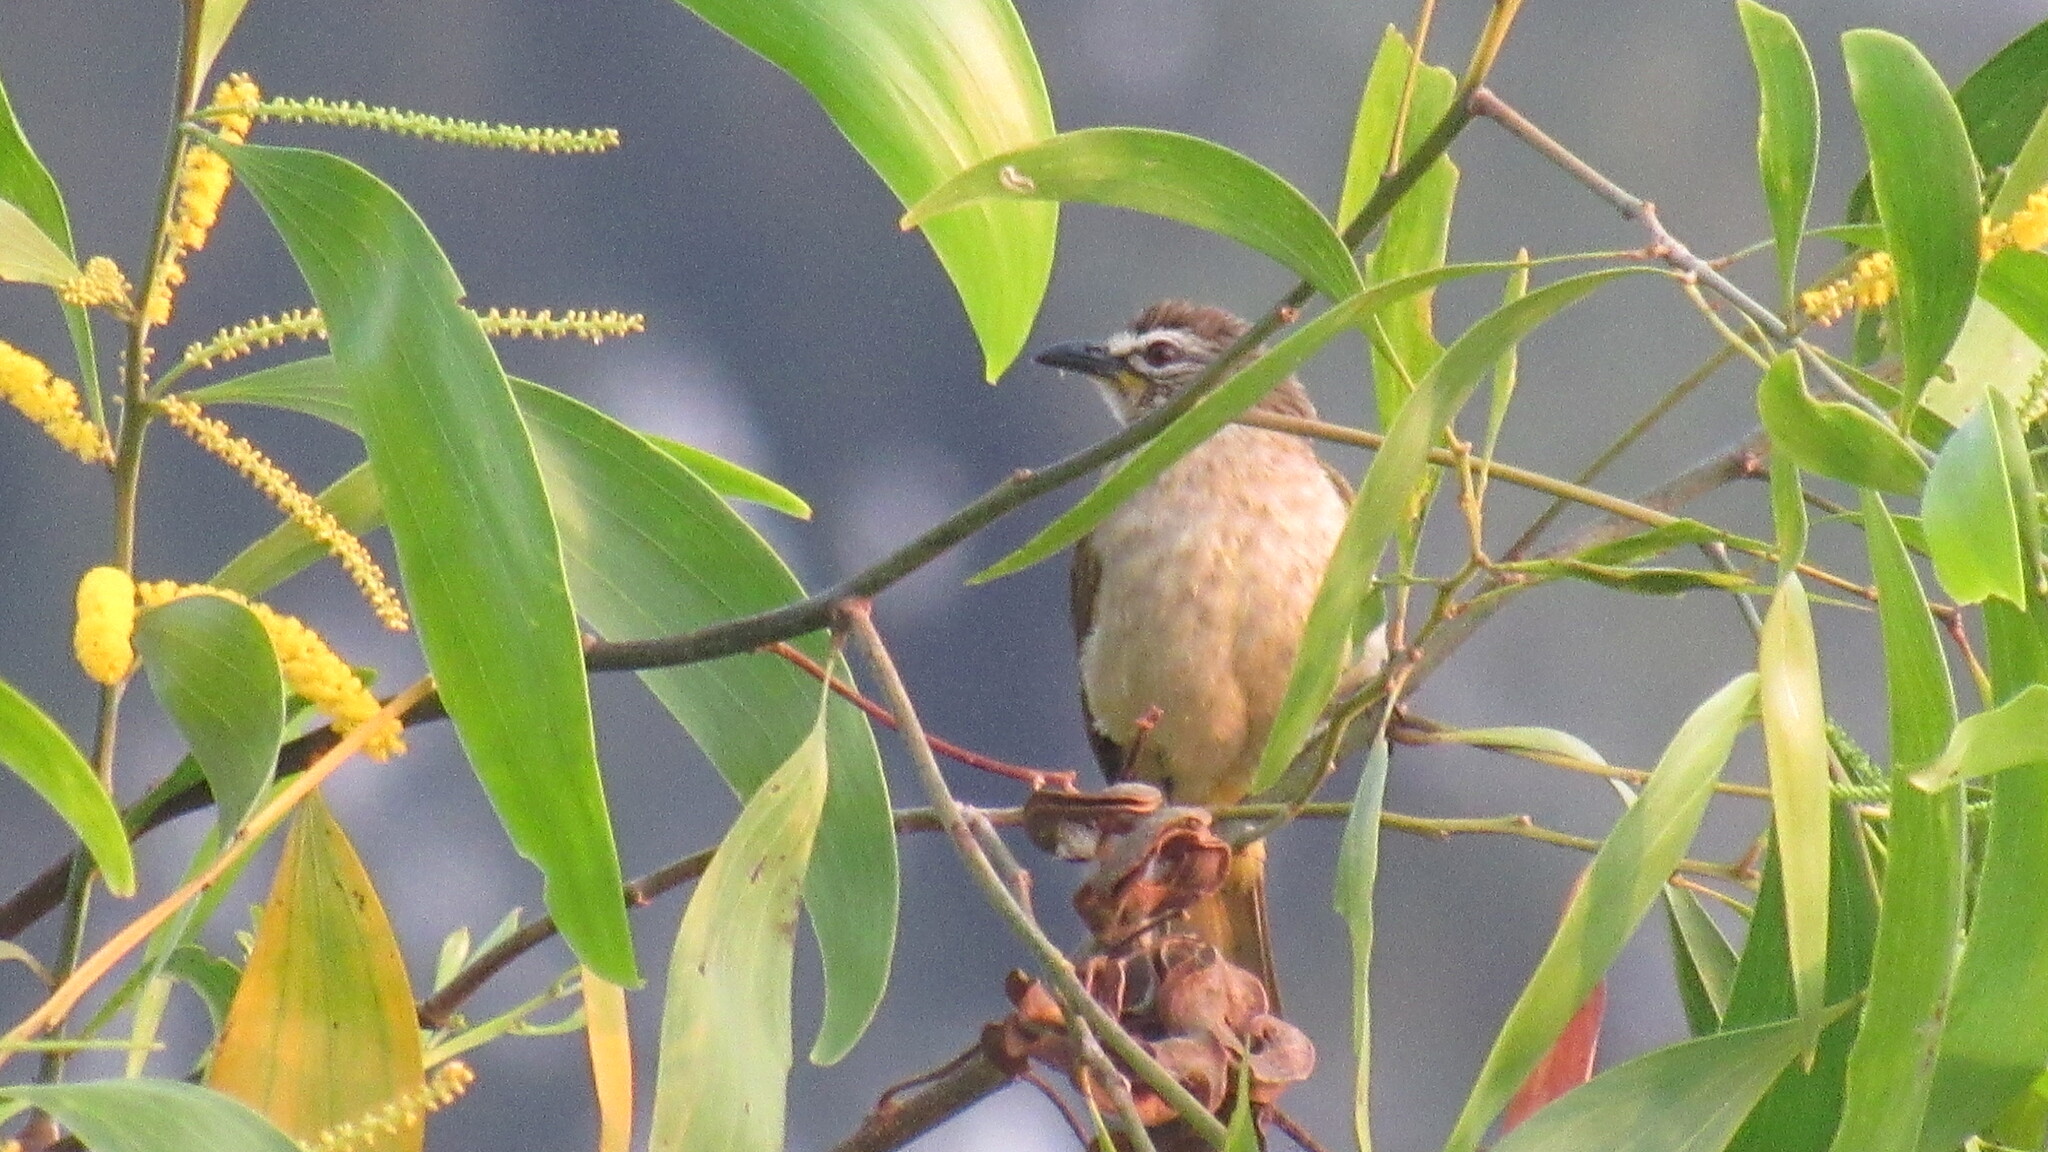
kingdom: Animalia
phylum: Chordata
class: Aves
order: Passeriformes
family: Pycnonotidae
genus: Pycnonotus
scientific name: Pycnonotus luteolus
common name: White-browed bulbul
